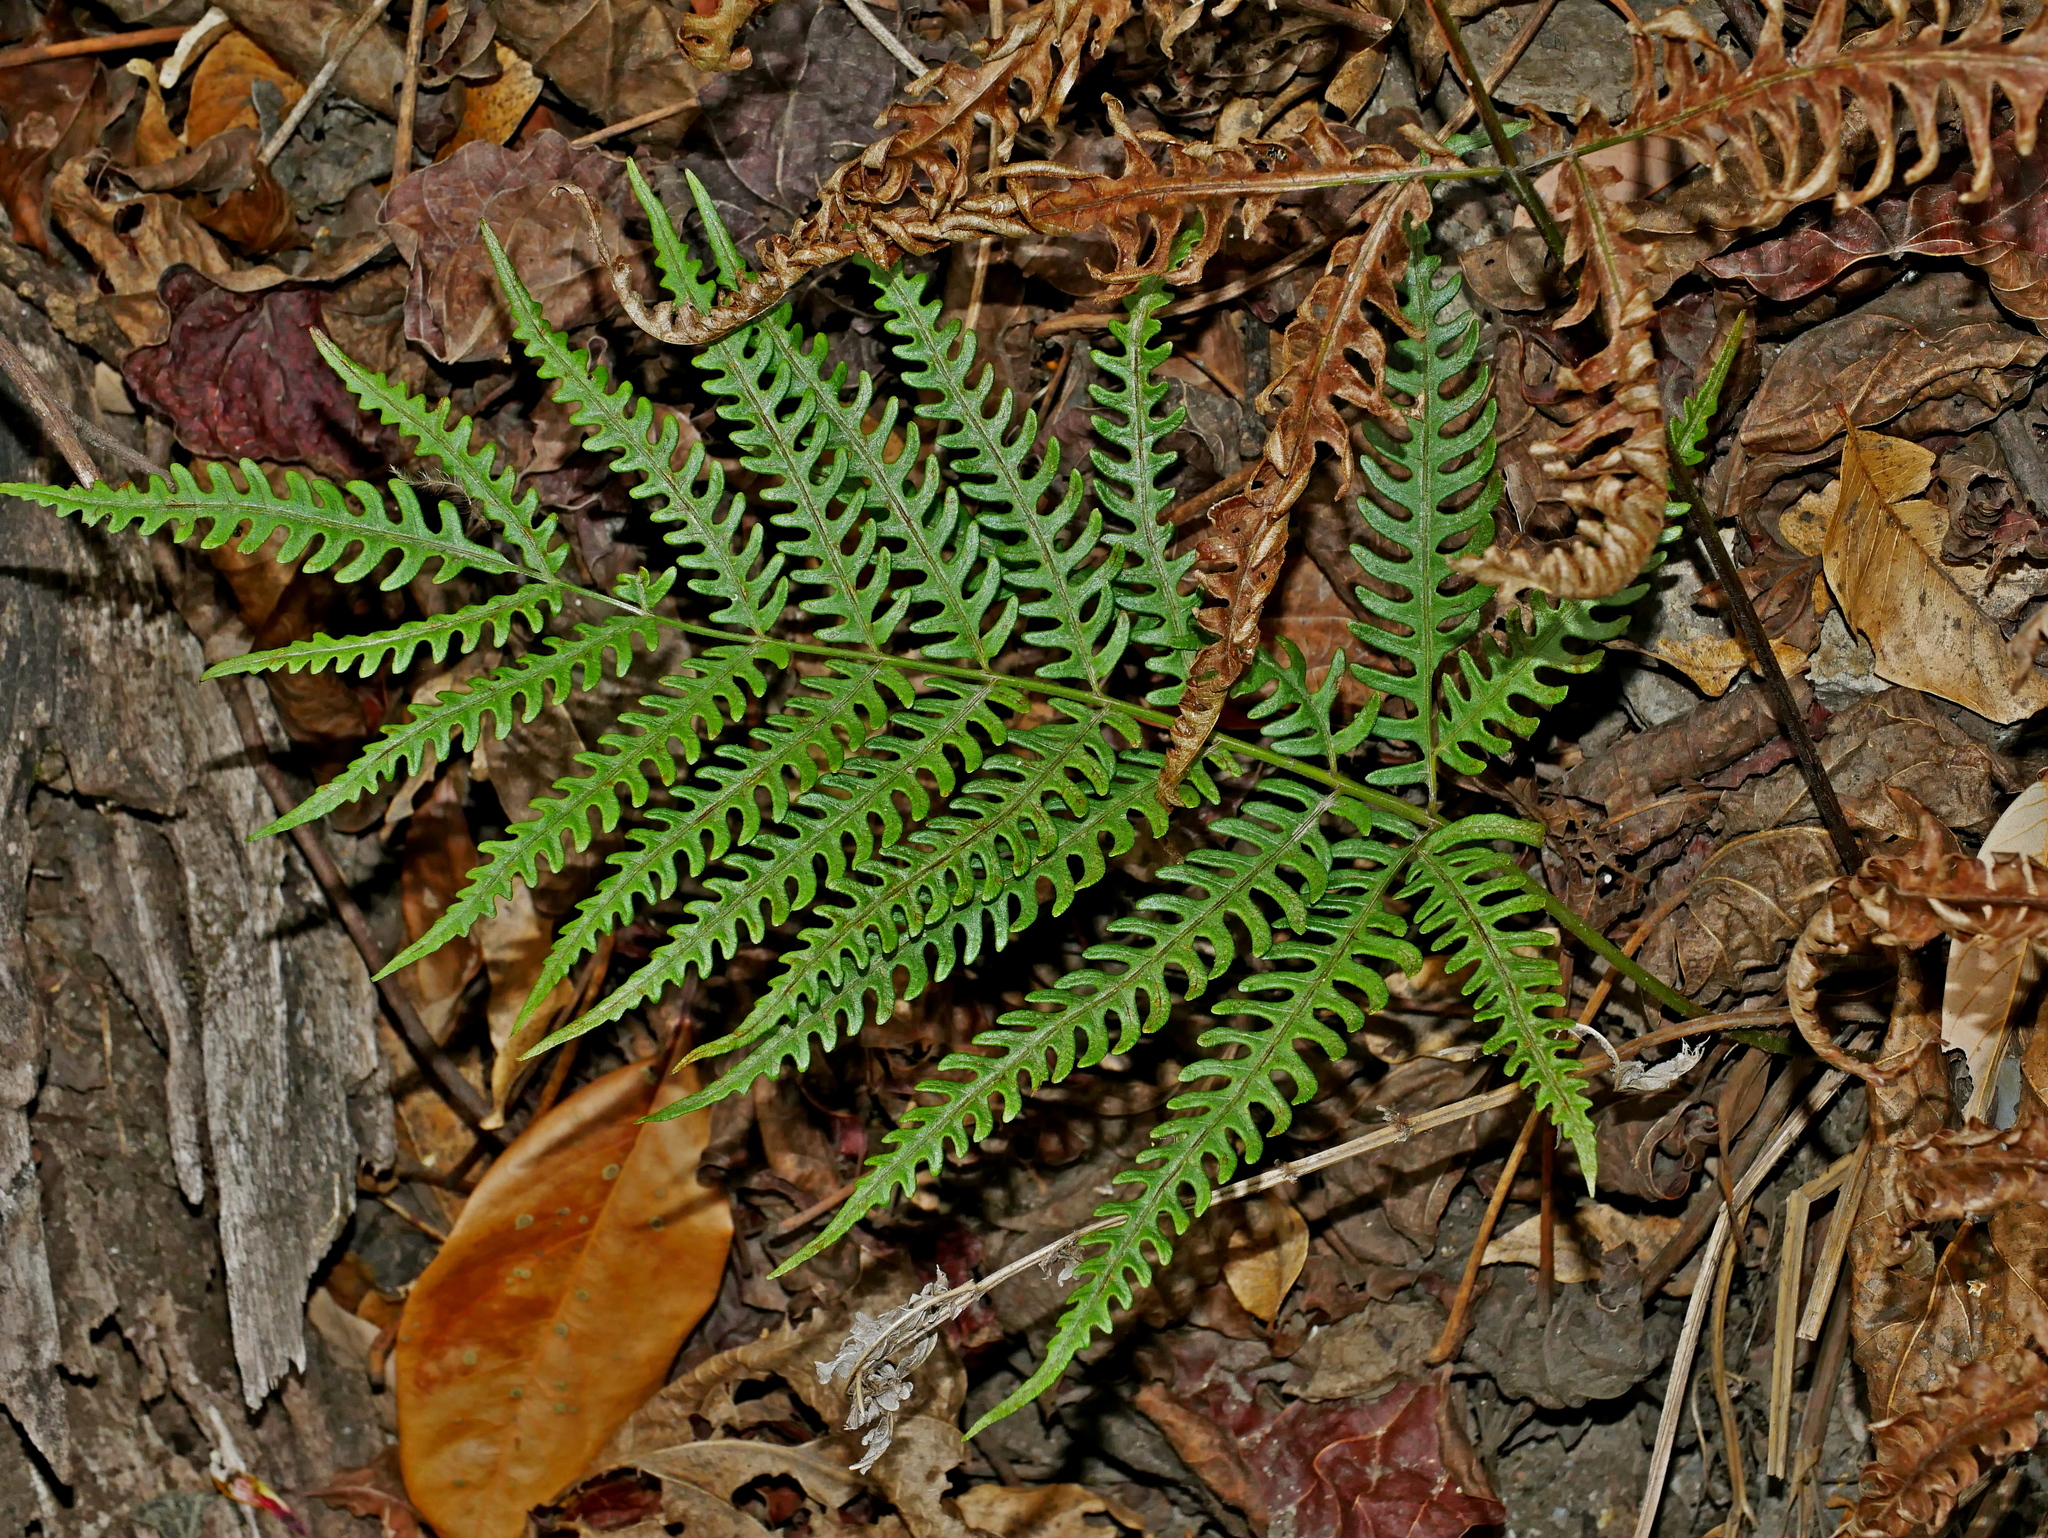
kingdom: Plantae
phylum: Tracheophyta
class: Polypodiopsida
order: Polypodiales
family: Pteridaceae
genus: Pteris
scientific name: Pteris biaurita
